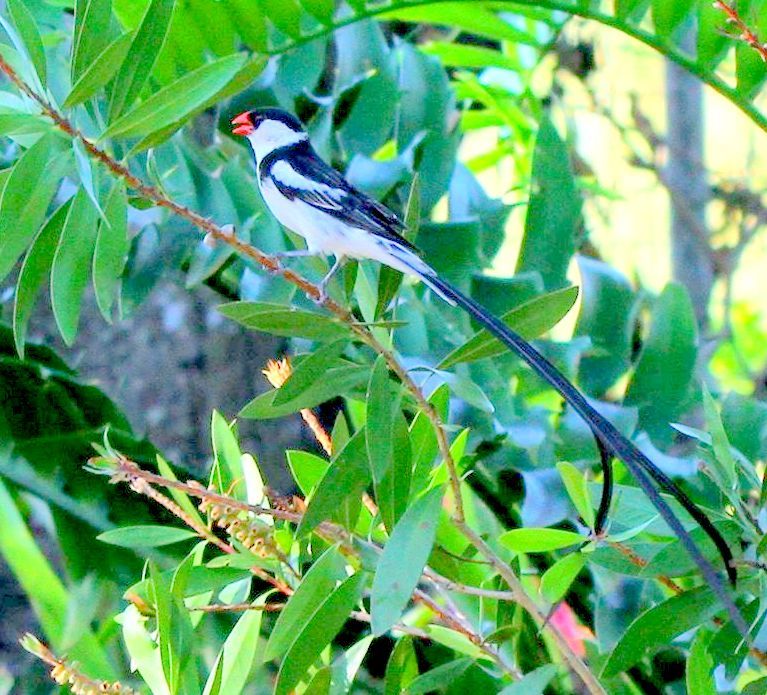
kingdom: Animalia
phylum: Chordata
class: Aves
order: Passeriformes
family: Viduidae
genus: Vidua
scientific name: Vidua macroura
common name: Pin-tailed whydah
